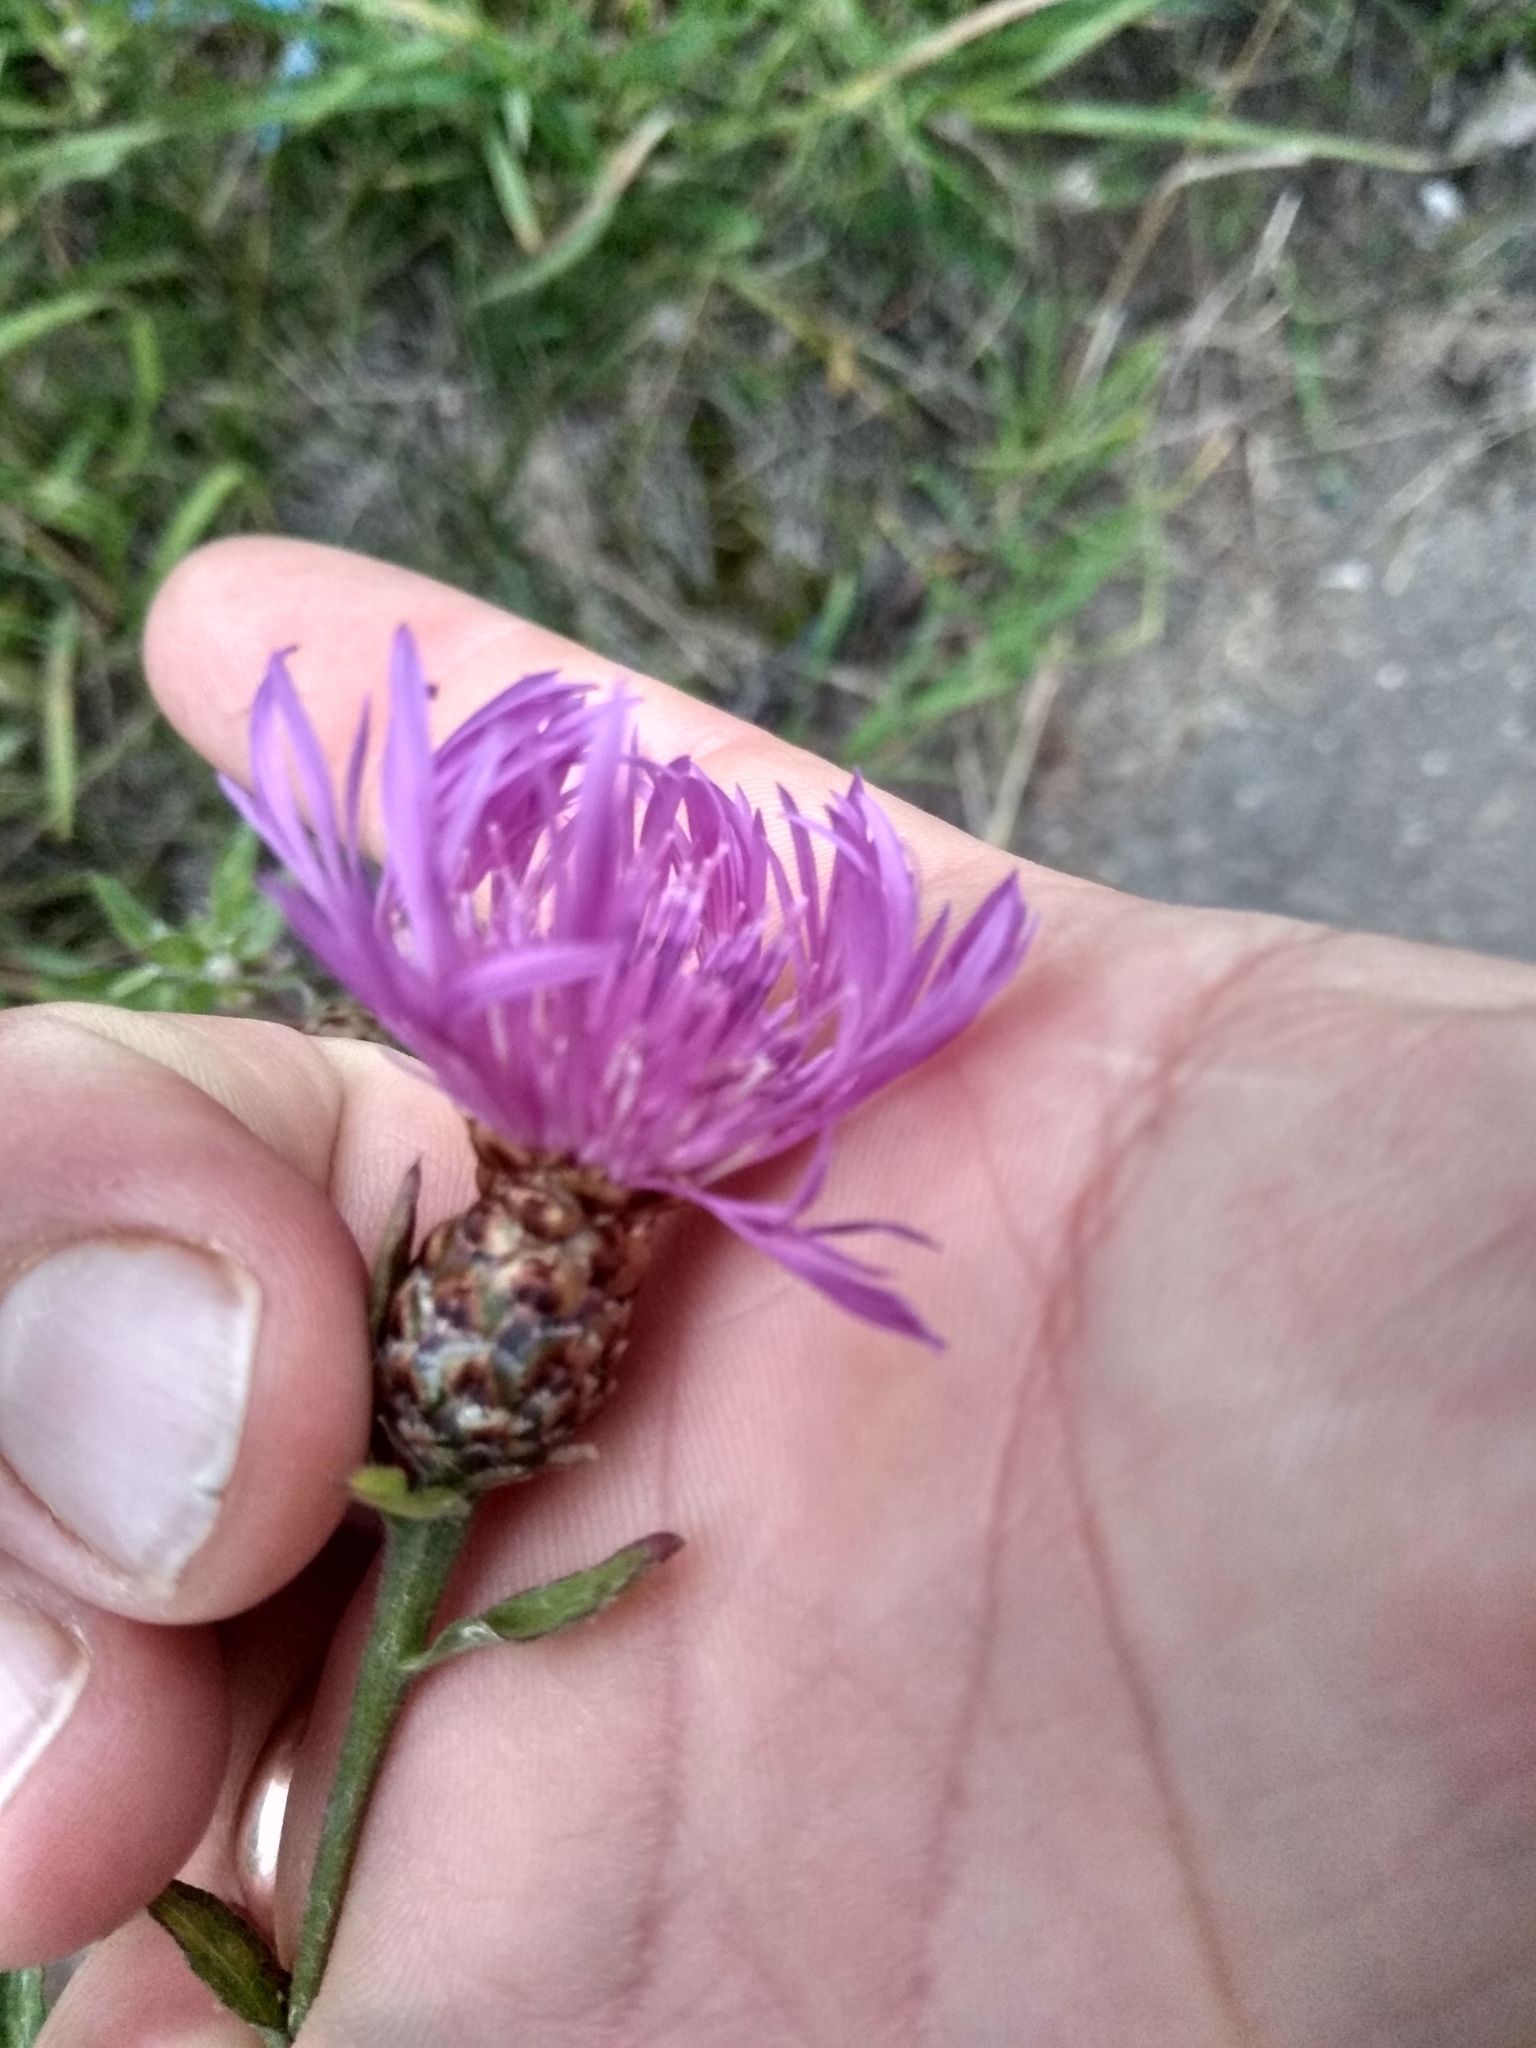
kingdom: Plantae
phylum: Tracheophyta
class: Magnoliopsida
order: Asterales
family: Asteraceae
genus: Centaurea
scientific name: Centaurea jacea
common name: Brown knapweed
